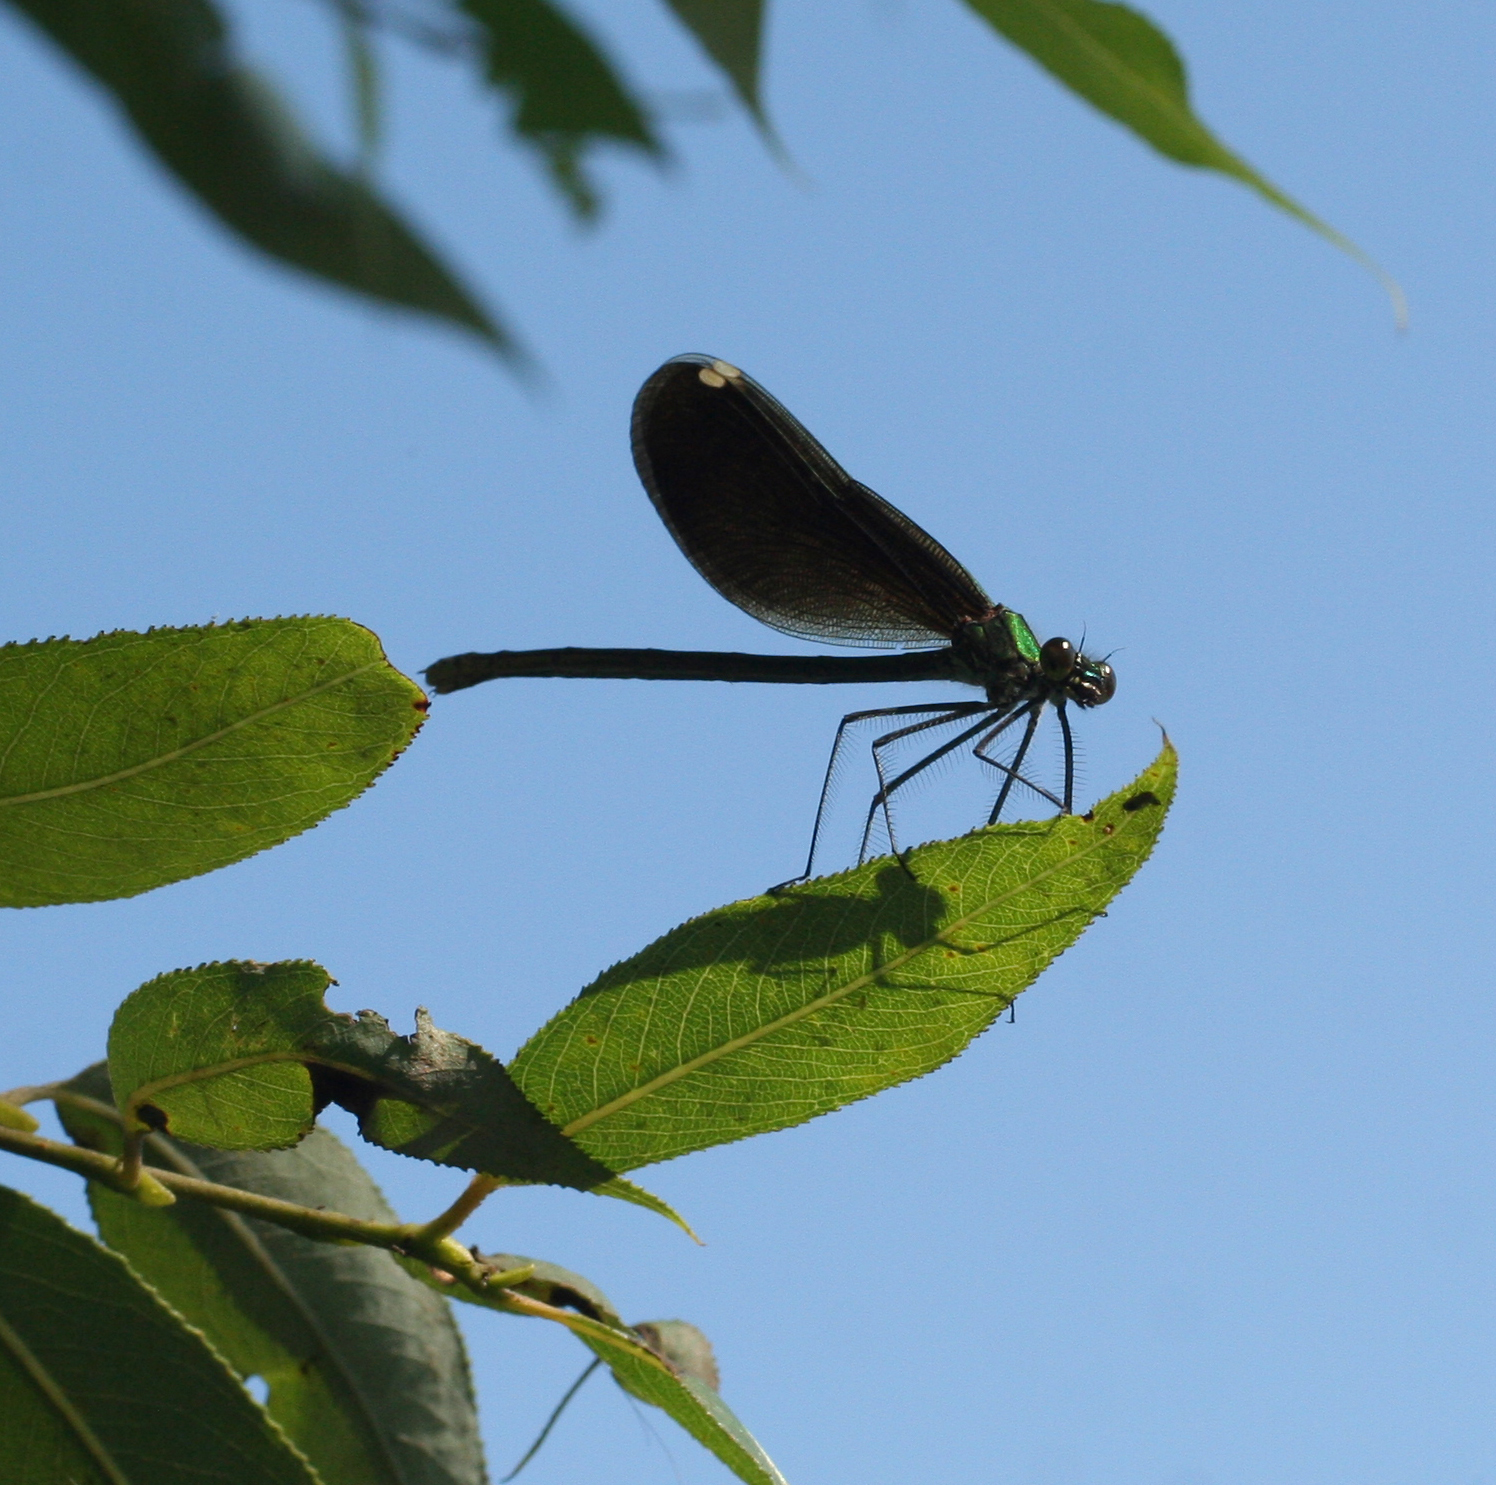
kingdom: Animalia
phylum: Arthropoda
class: Insecta
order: Odonata
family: Calopterygidae
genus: Calopteryx
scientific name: Calopteryx japonica
